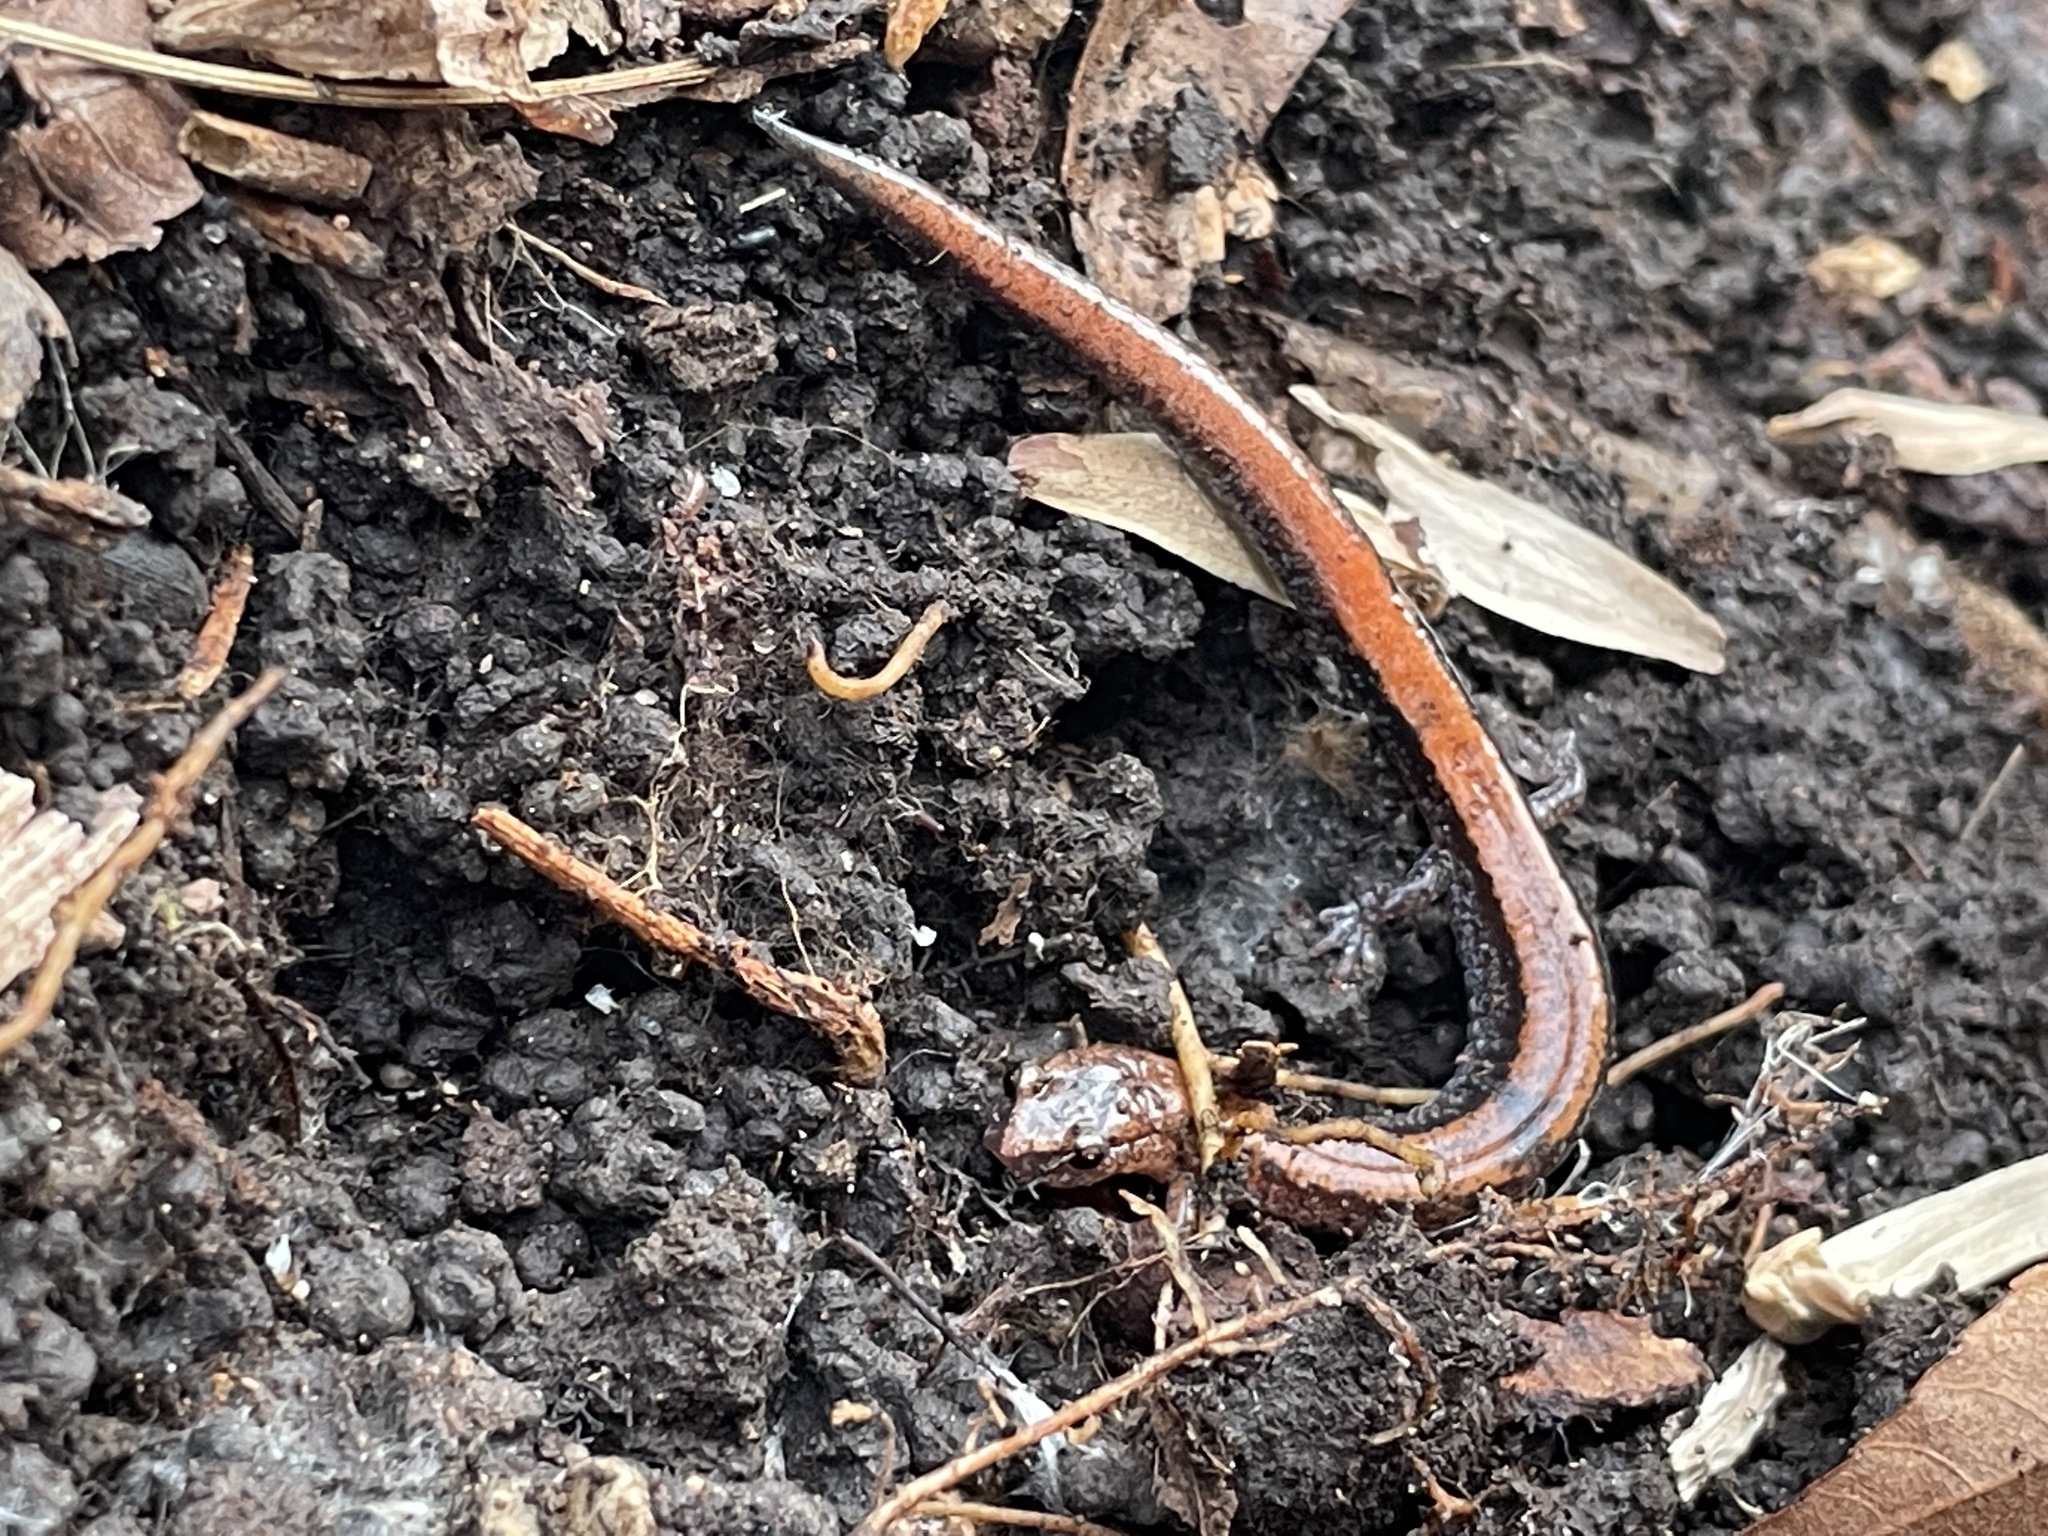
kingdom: Animalia
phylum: Chordata
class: Amphibia
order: Caudata
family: Plethodontidae
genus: Plethodon
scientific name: Plethodon cinereus
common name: Redback salamander
